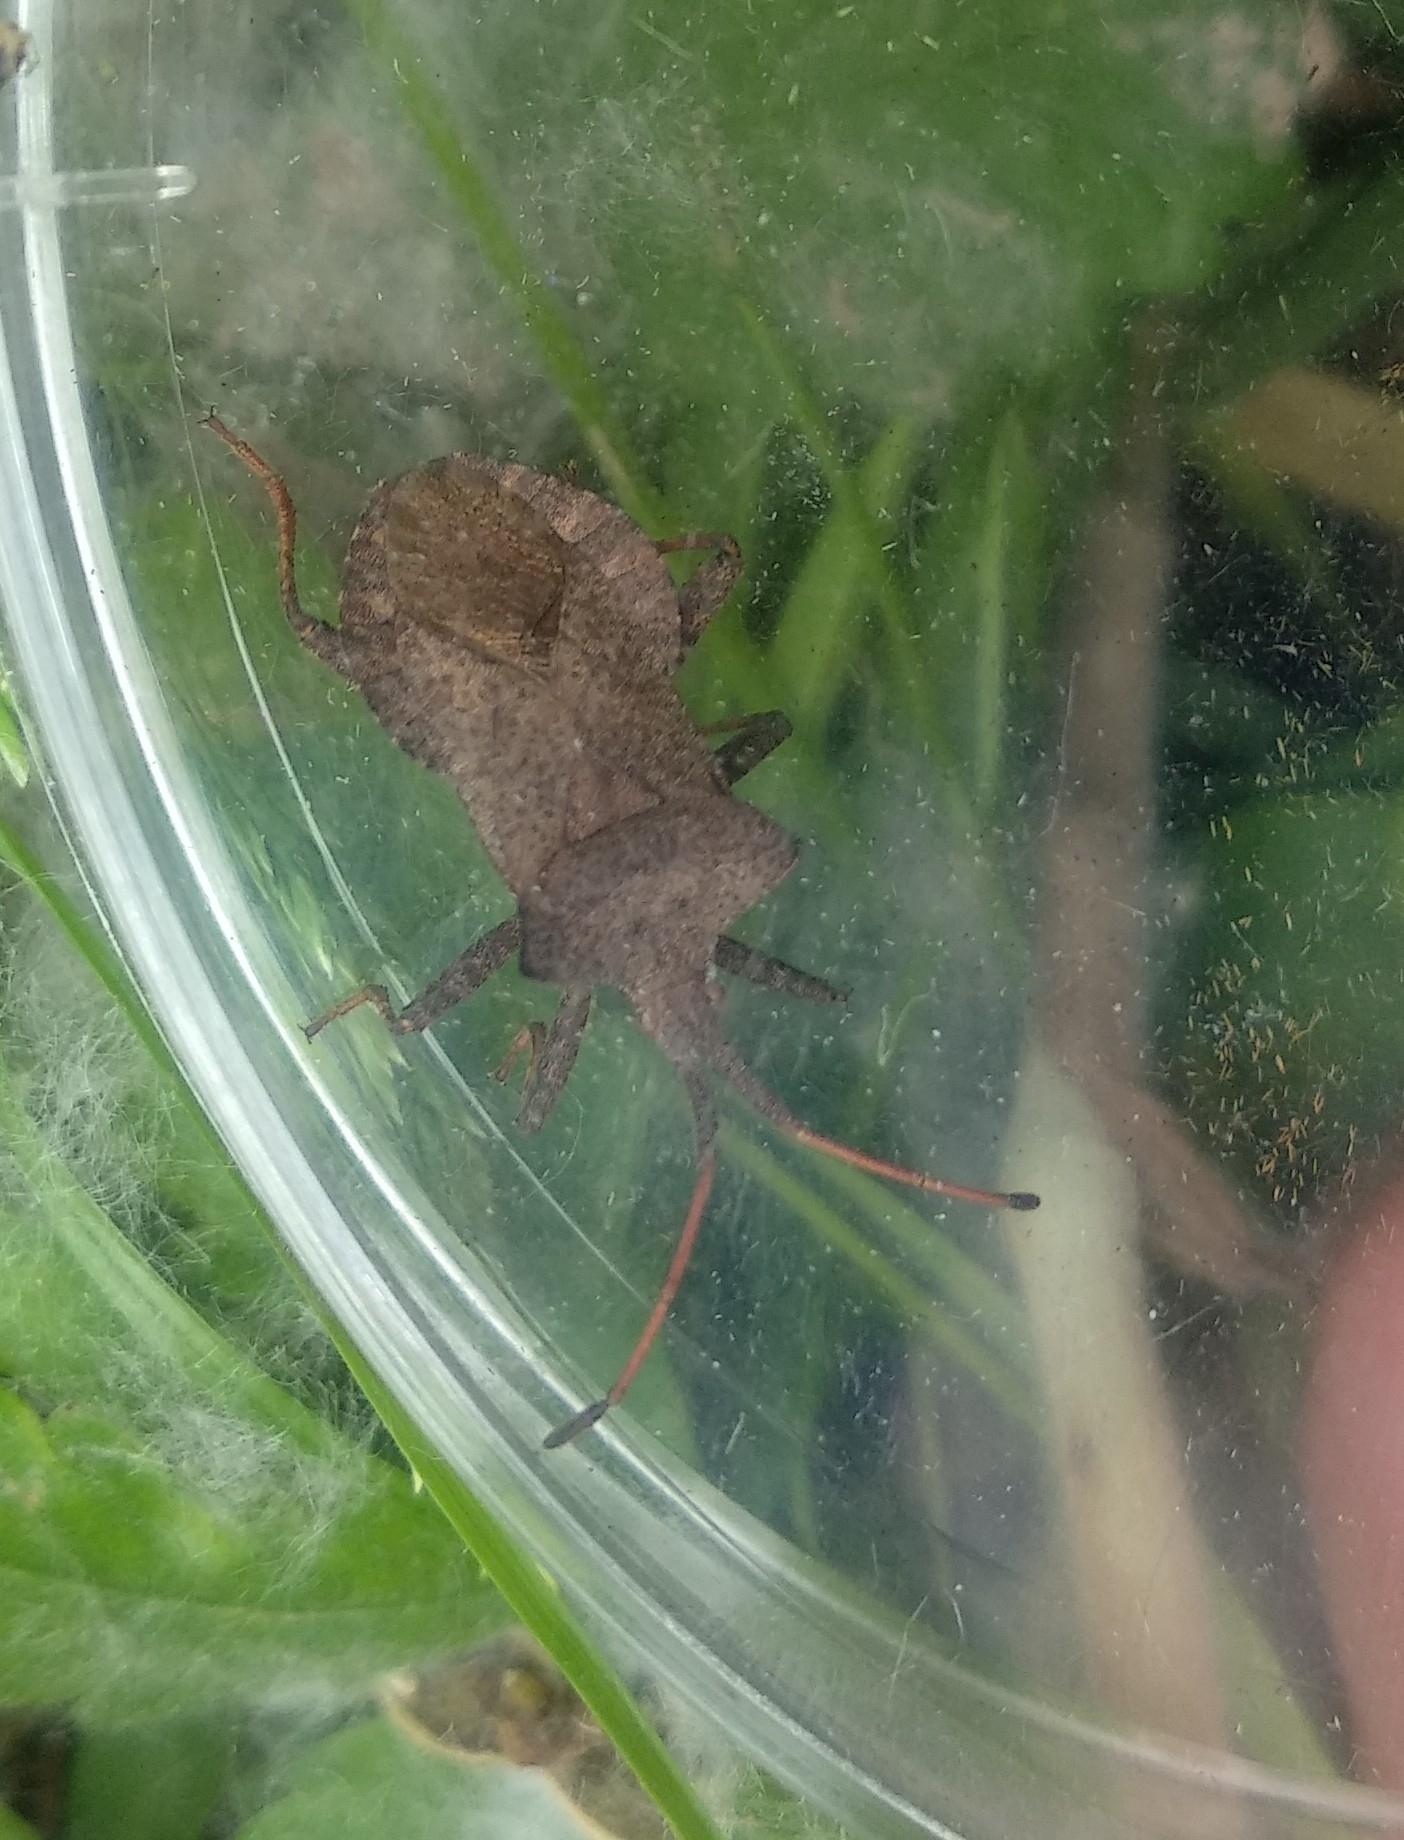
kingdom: Animalia
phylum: Arthropoda
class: Insecta
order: Hemiptera
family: Coreidae
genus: Coreus
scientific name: Coreus marginatus
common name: Dock bug
